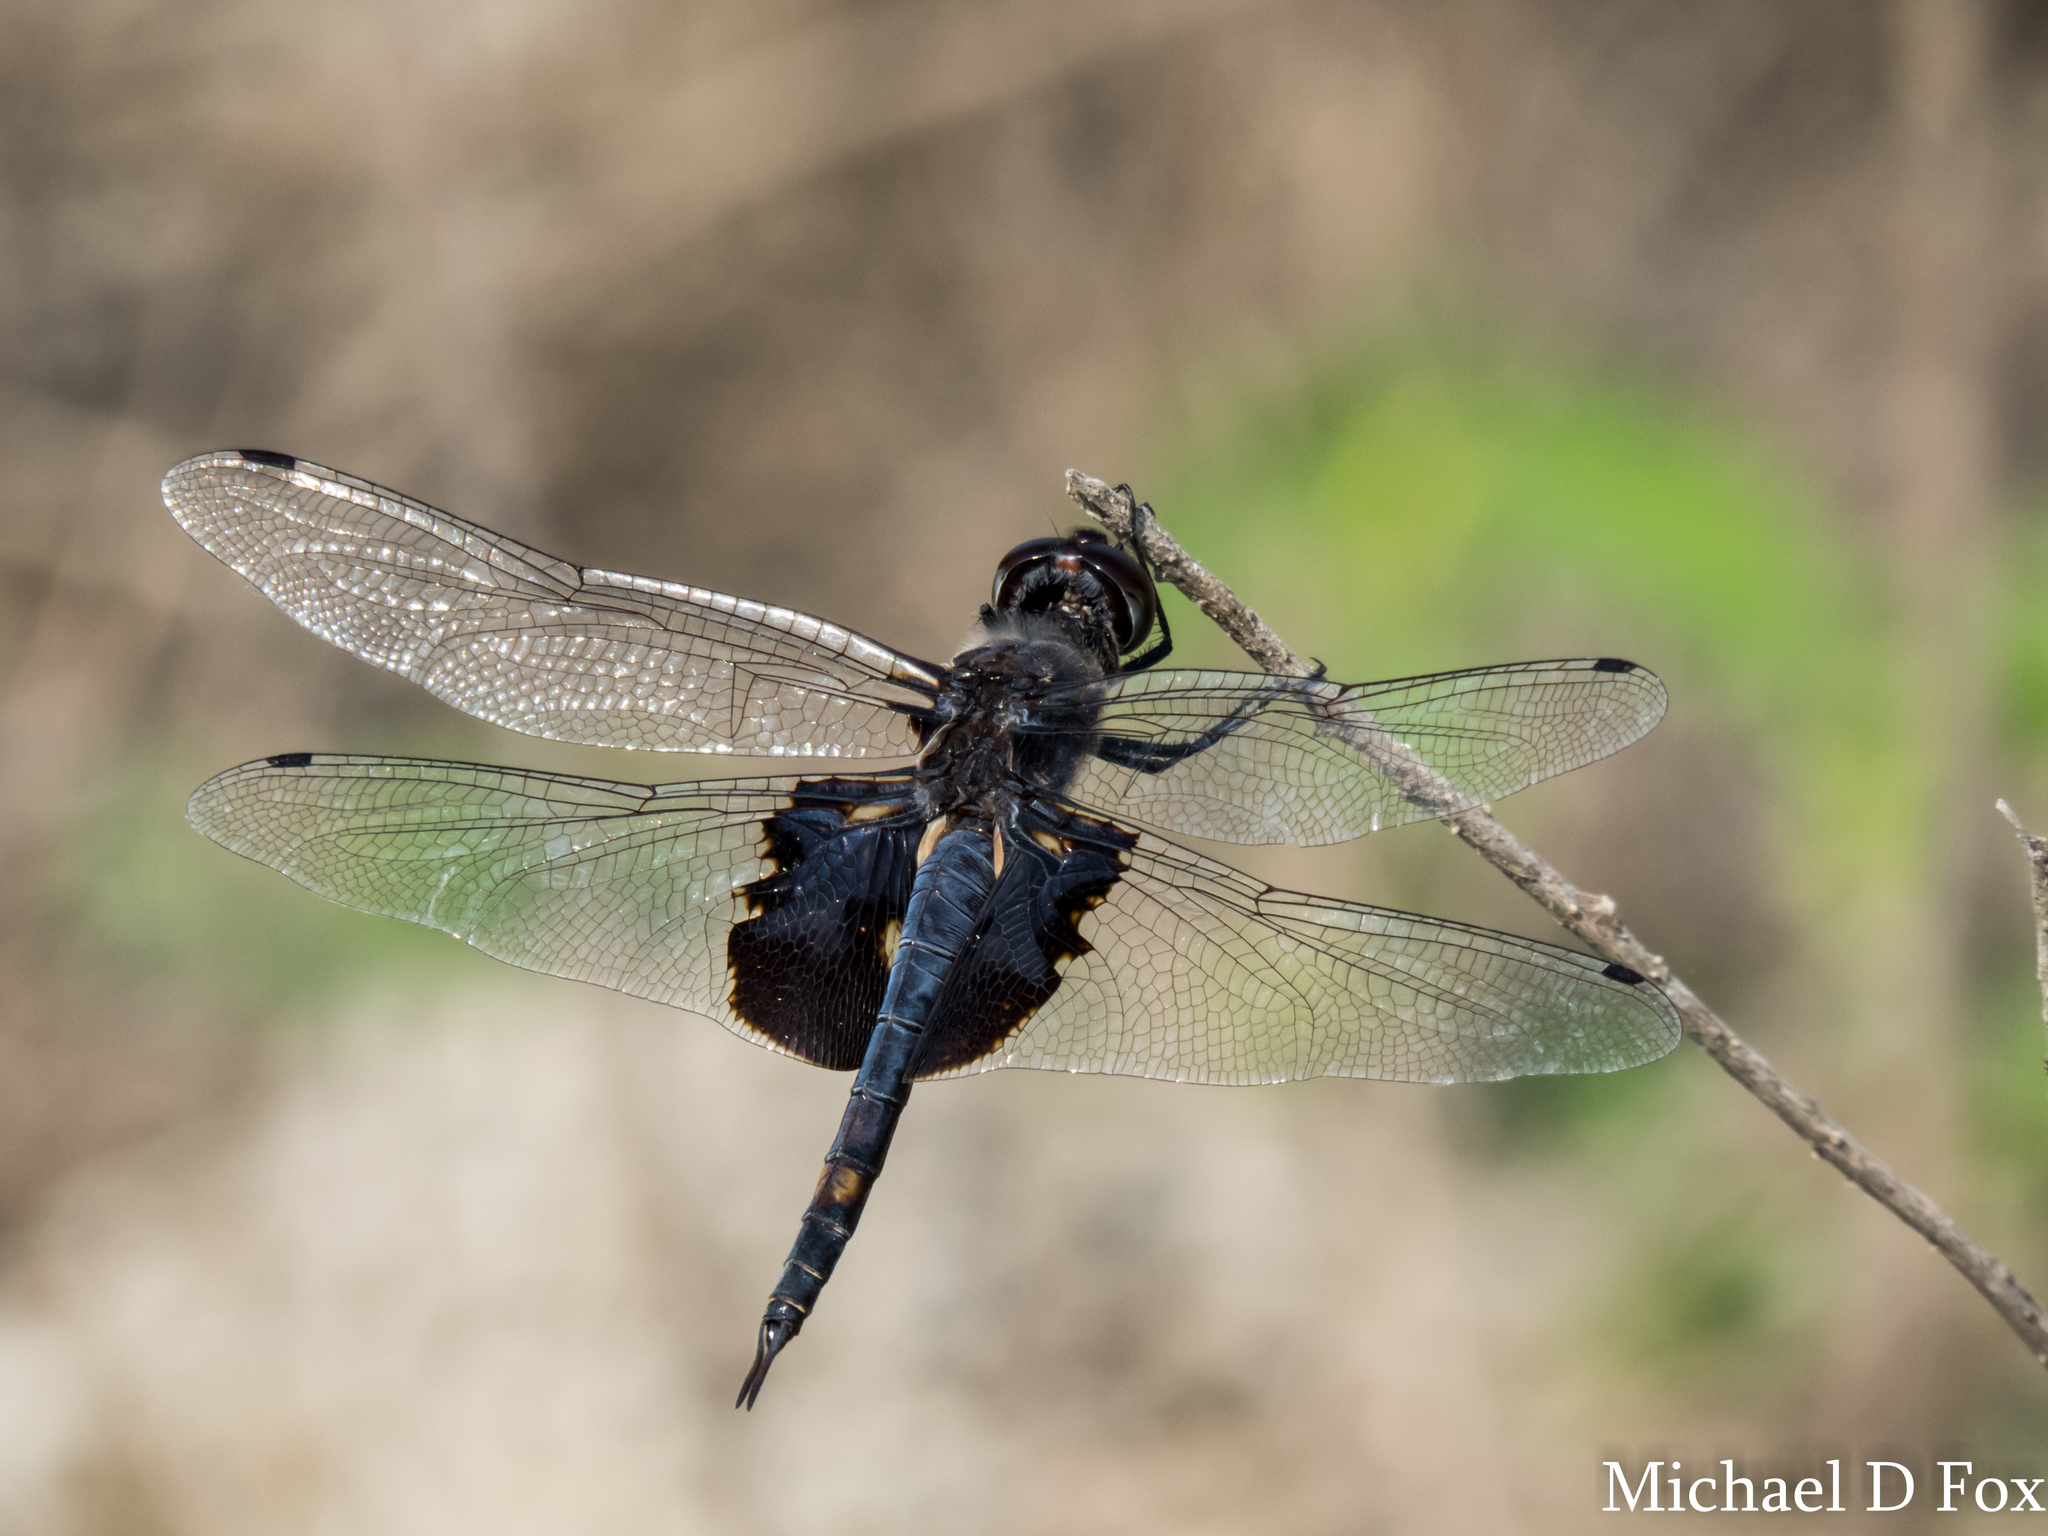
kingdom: Animalia
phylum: Arthropoda
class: Insecta
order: Odonata
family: Libellulidae
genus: Tramea
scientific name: Tramea lacerata
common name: Black saddlebags
